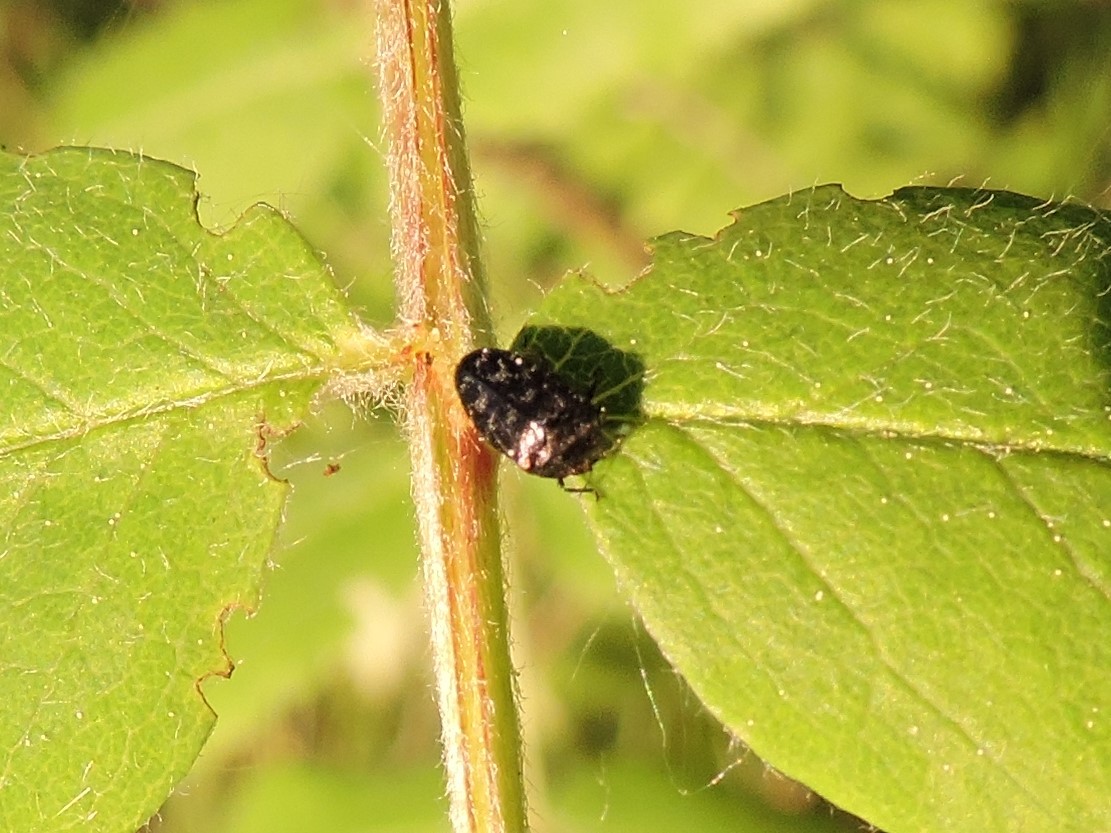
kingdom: Animalia
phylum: Arthropoda
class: Insecta
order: Coleoptera
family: Buprestidae
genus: Trachys
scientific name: Trachys minutus
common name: Metallic wood-boring beetle
